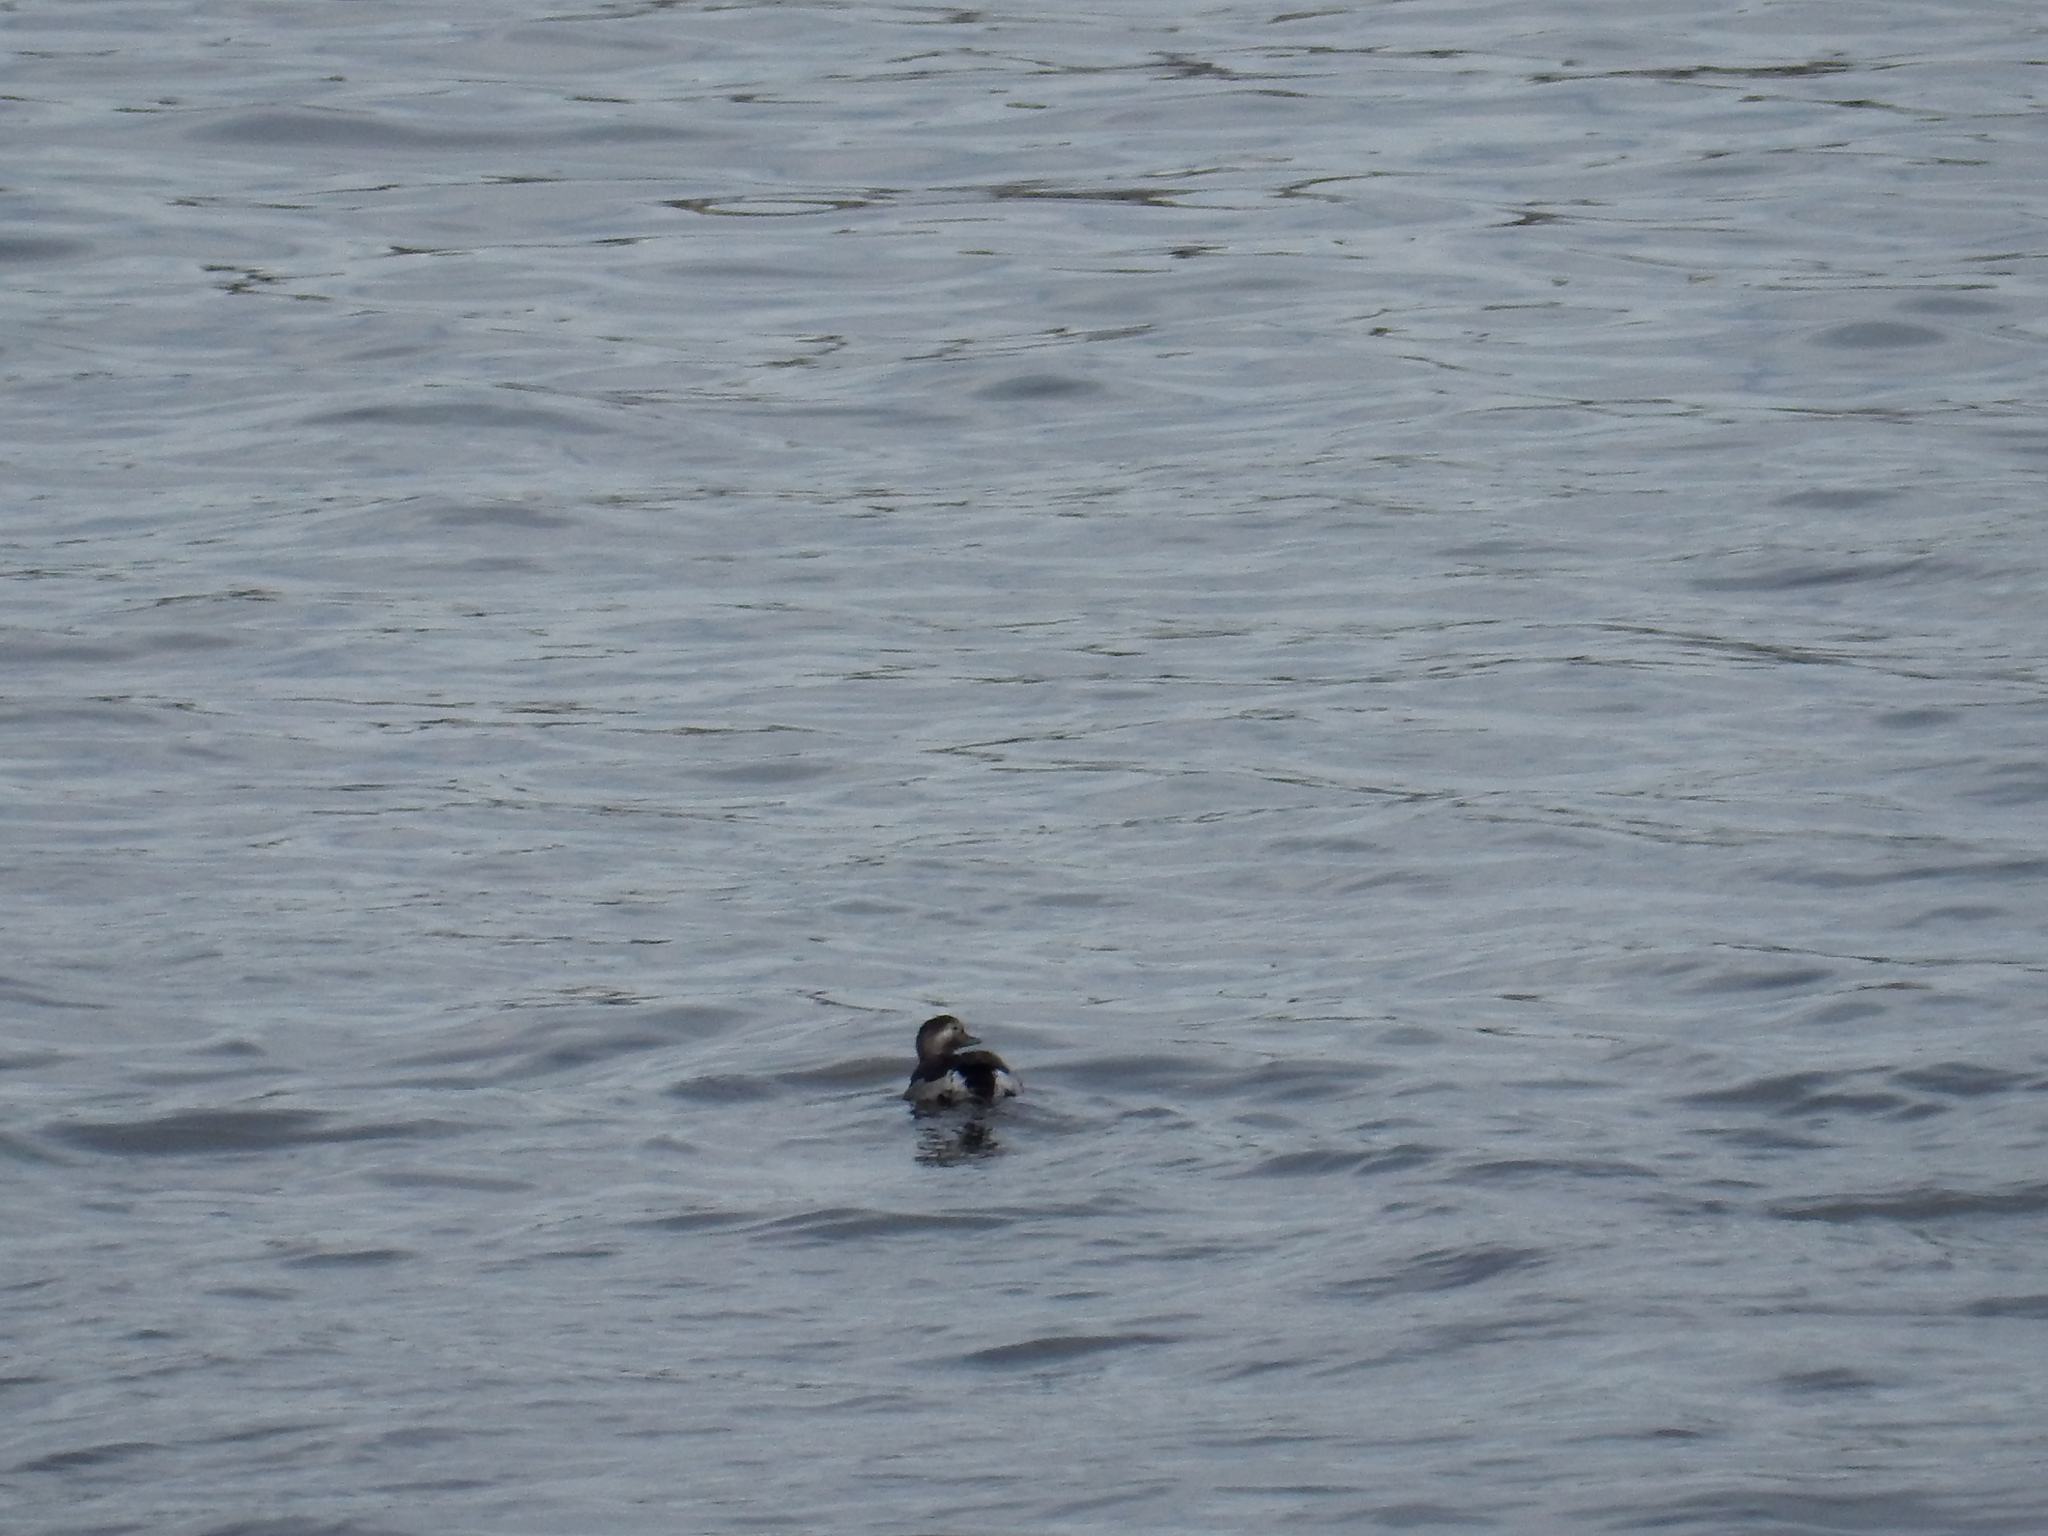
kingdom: Animalia
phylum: Chordata
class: Aves
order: Anseriformes
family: Anatidae
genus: Clangula
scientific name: Clangula hyemalis
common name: Long-tailed duck
